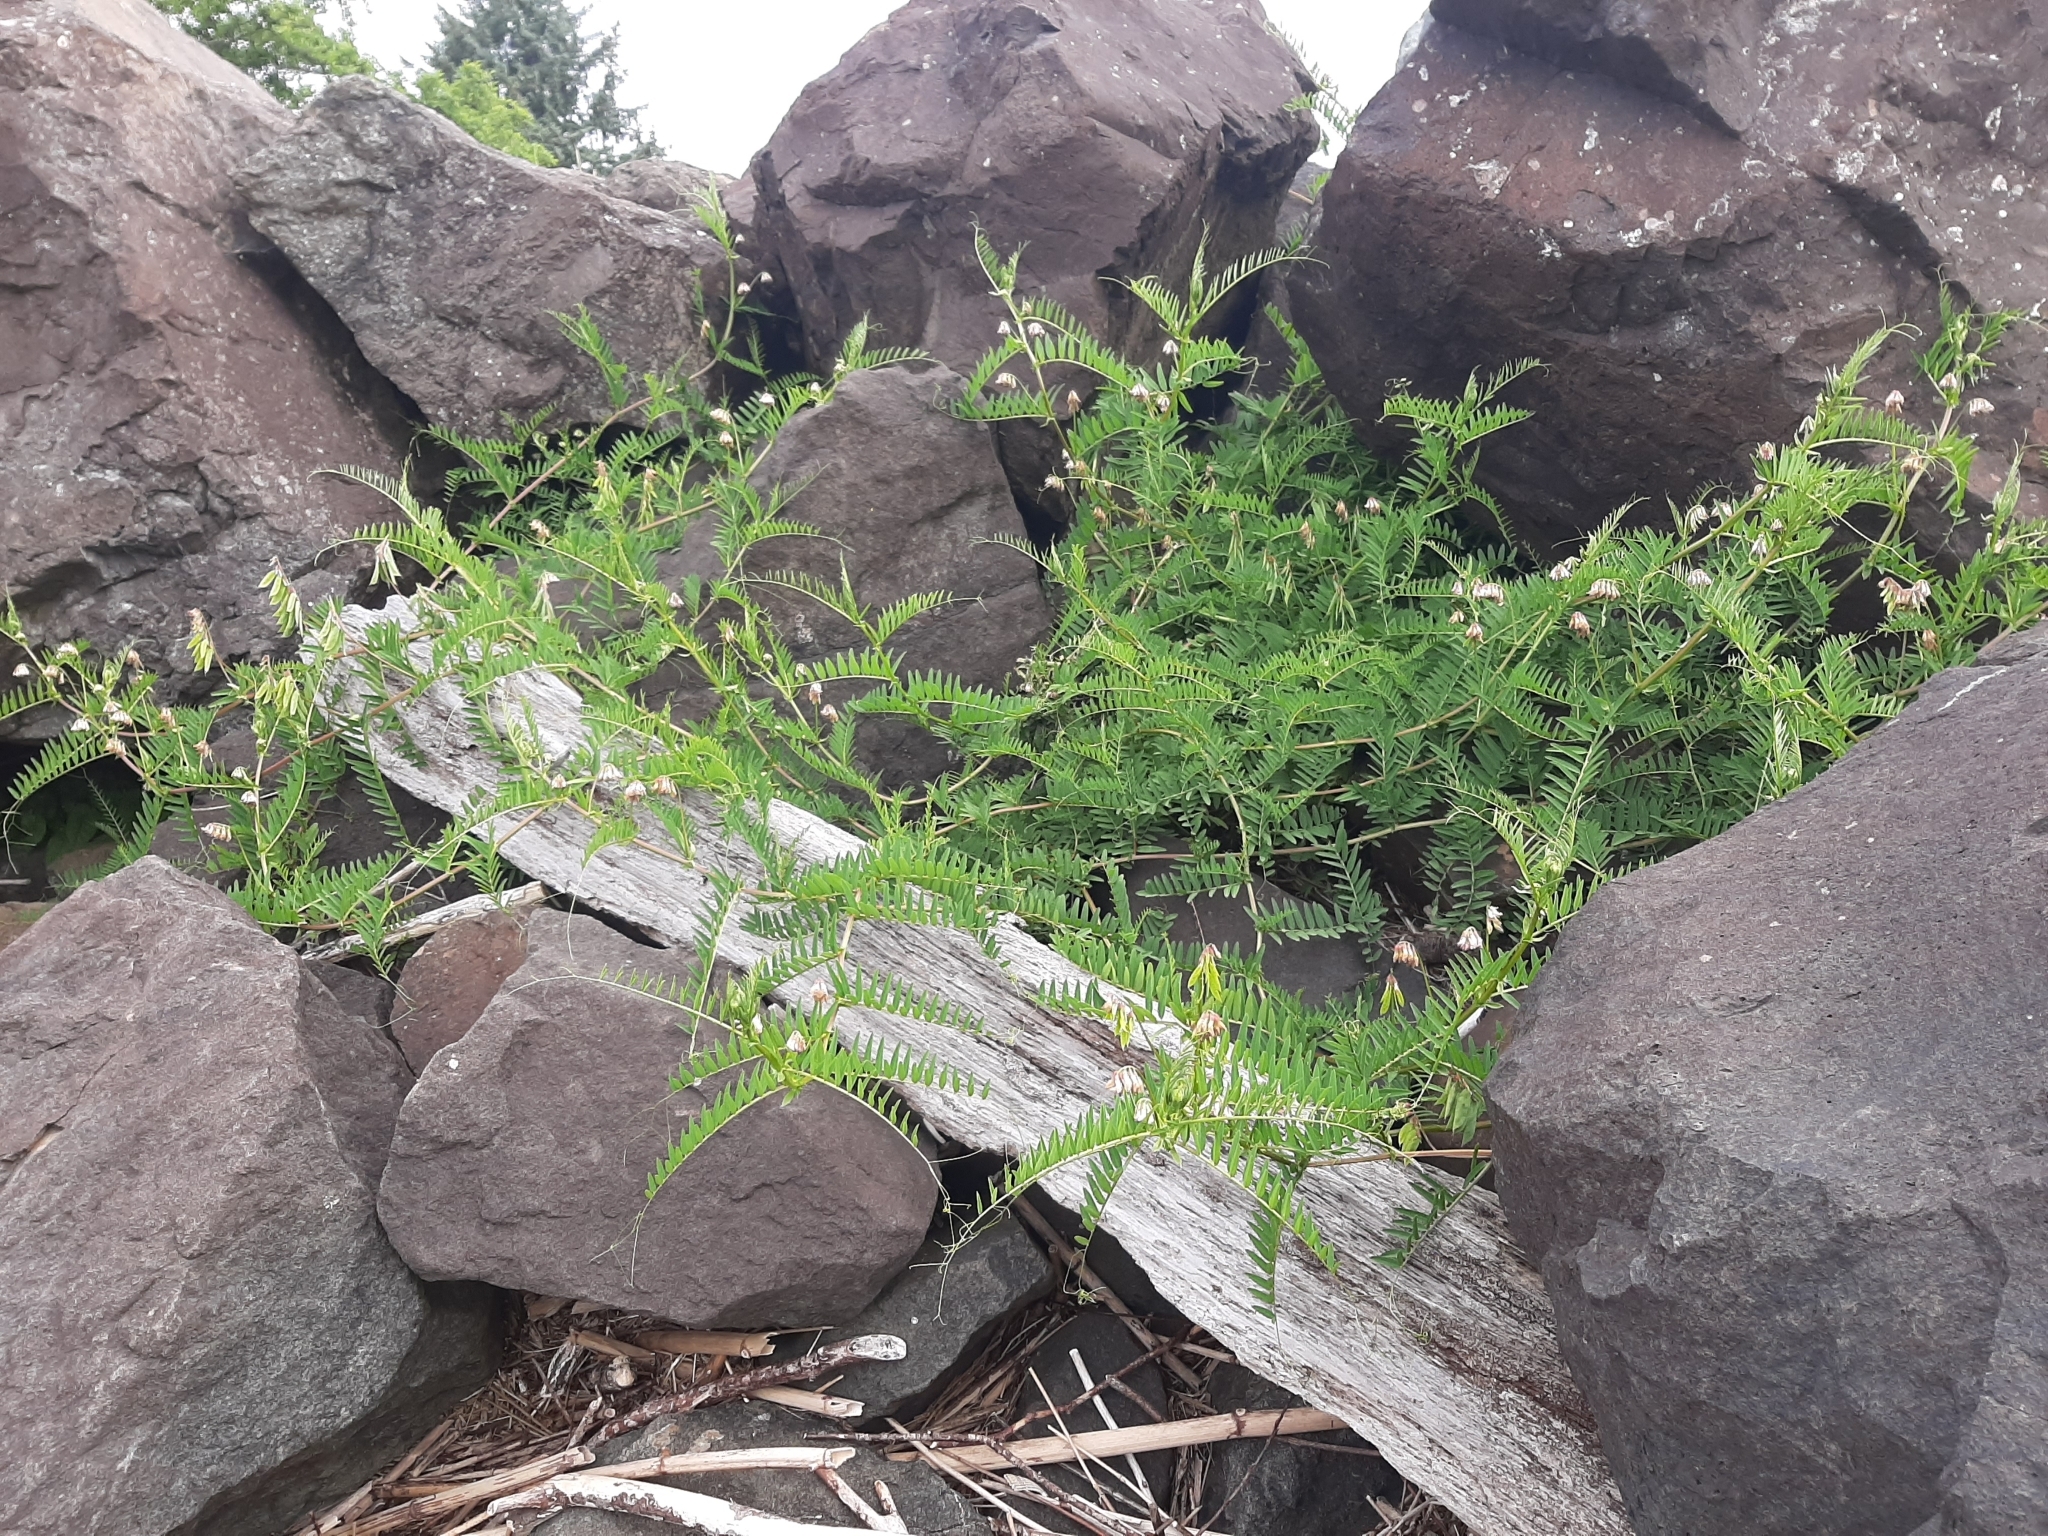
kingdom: Plantae
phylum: Tracheophyta
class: Magnoliopsida
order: Fabales
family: Fabaceae
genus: Vicia
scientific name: Vicia
